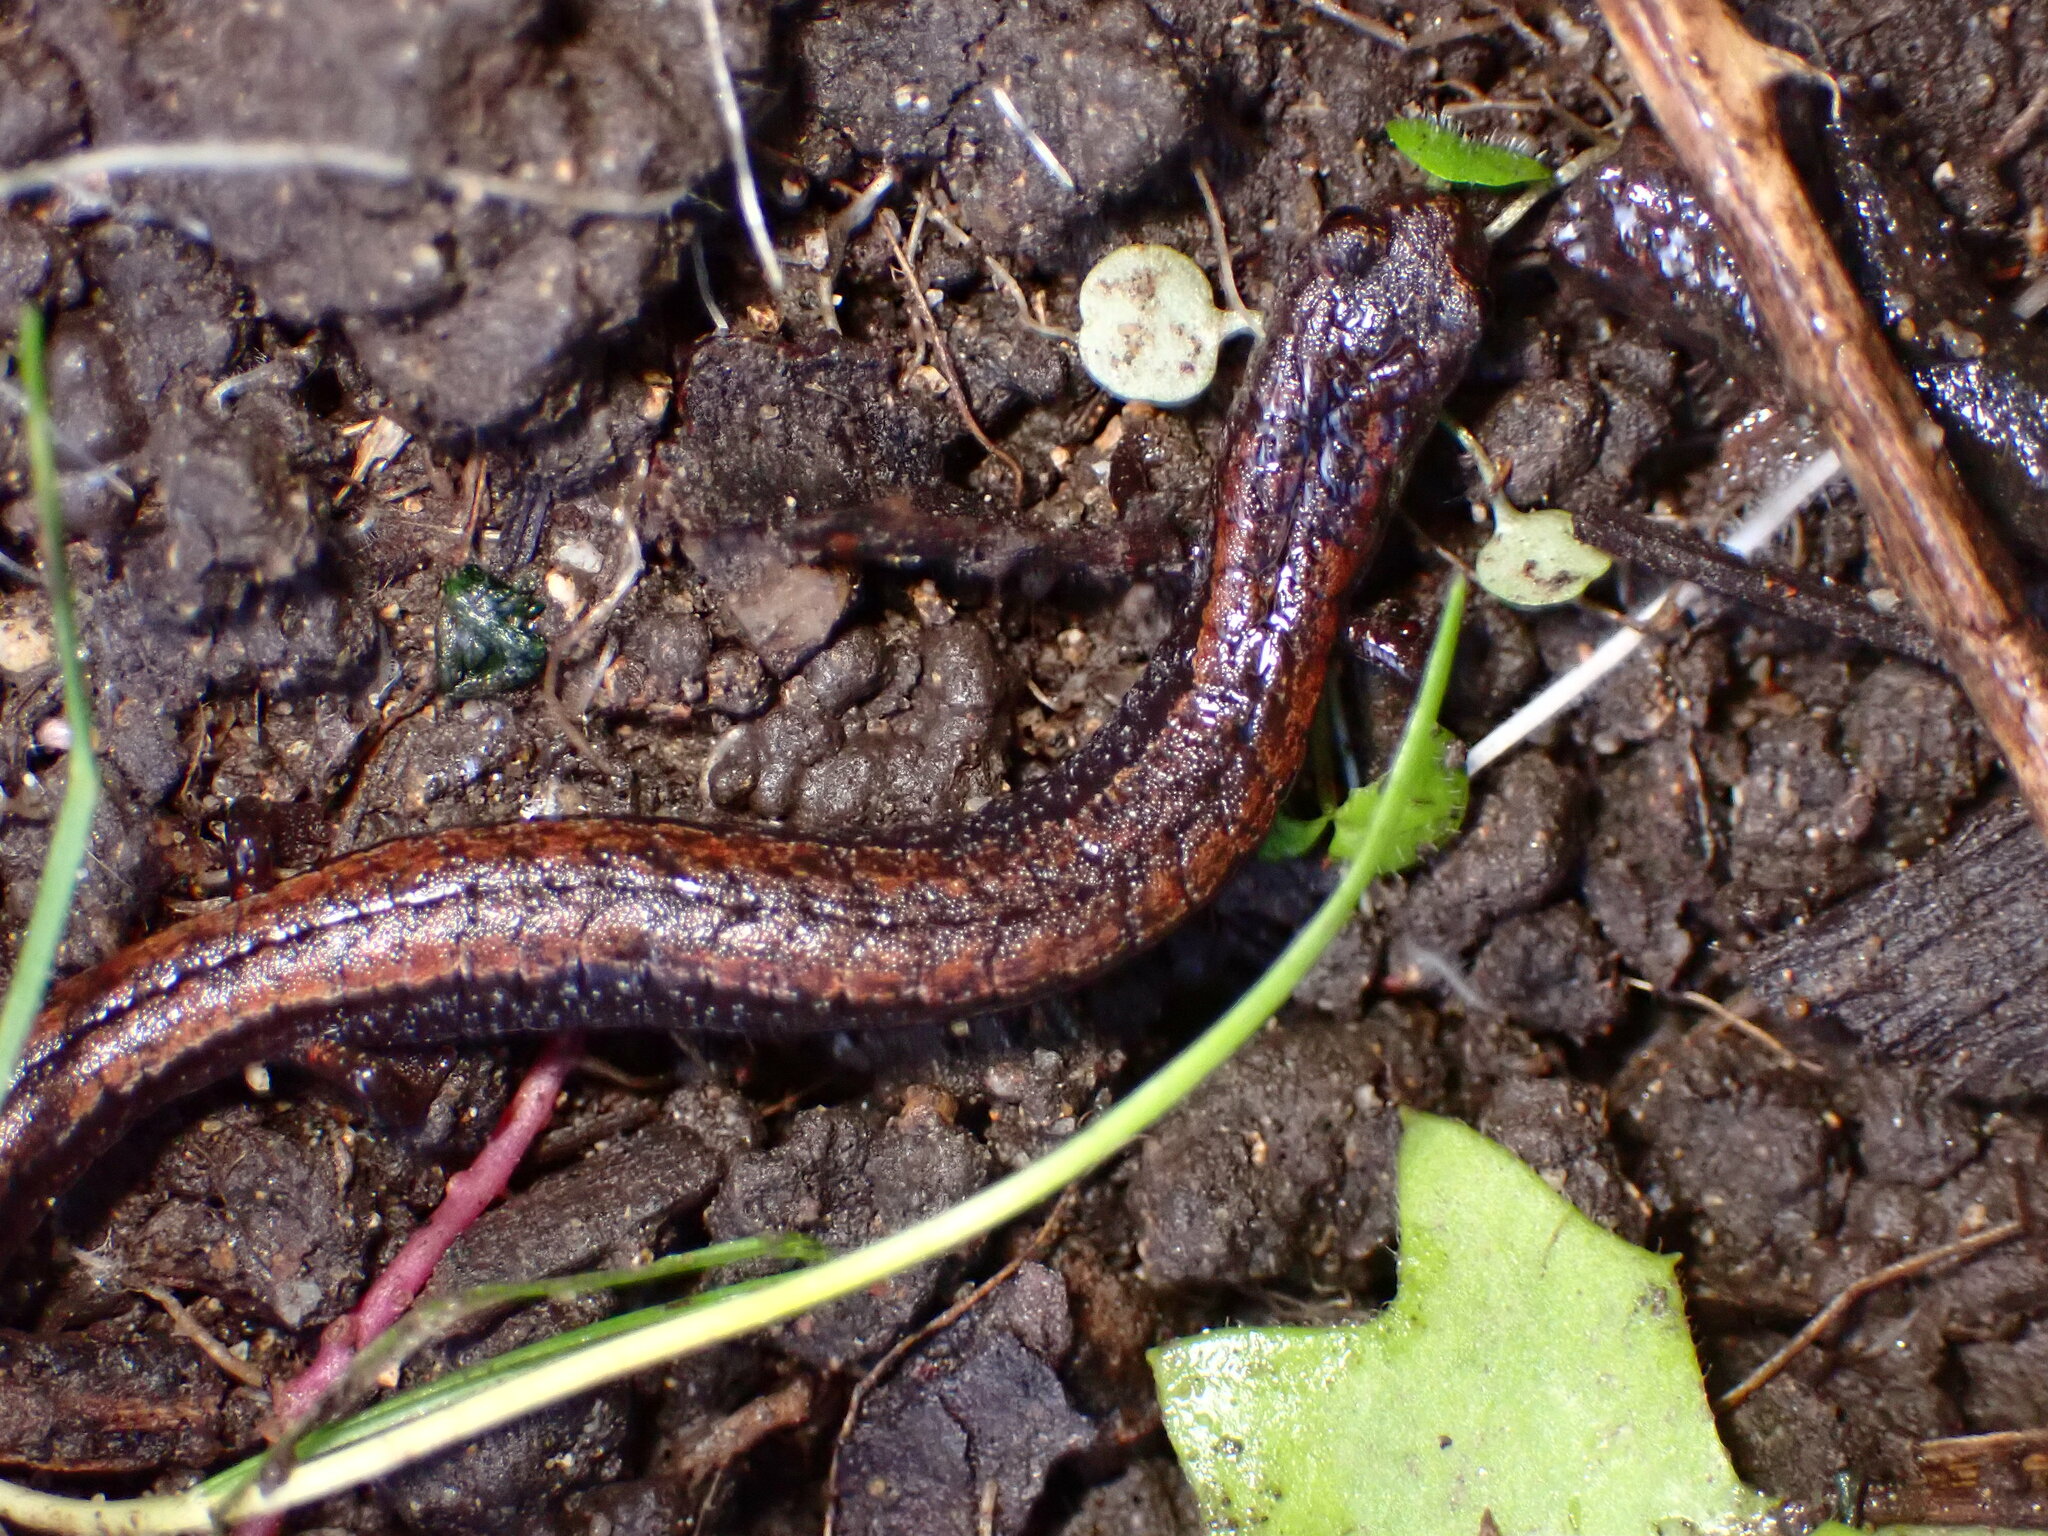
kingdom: Animalia
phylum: Chordata
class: Amphibia
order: Caudata
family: Plethodontidae
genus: Batrachoseps
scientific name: Batrachoseps attenuatus
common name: California slender salamander
